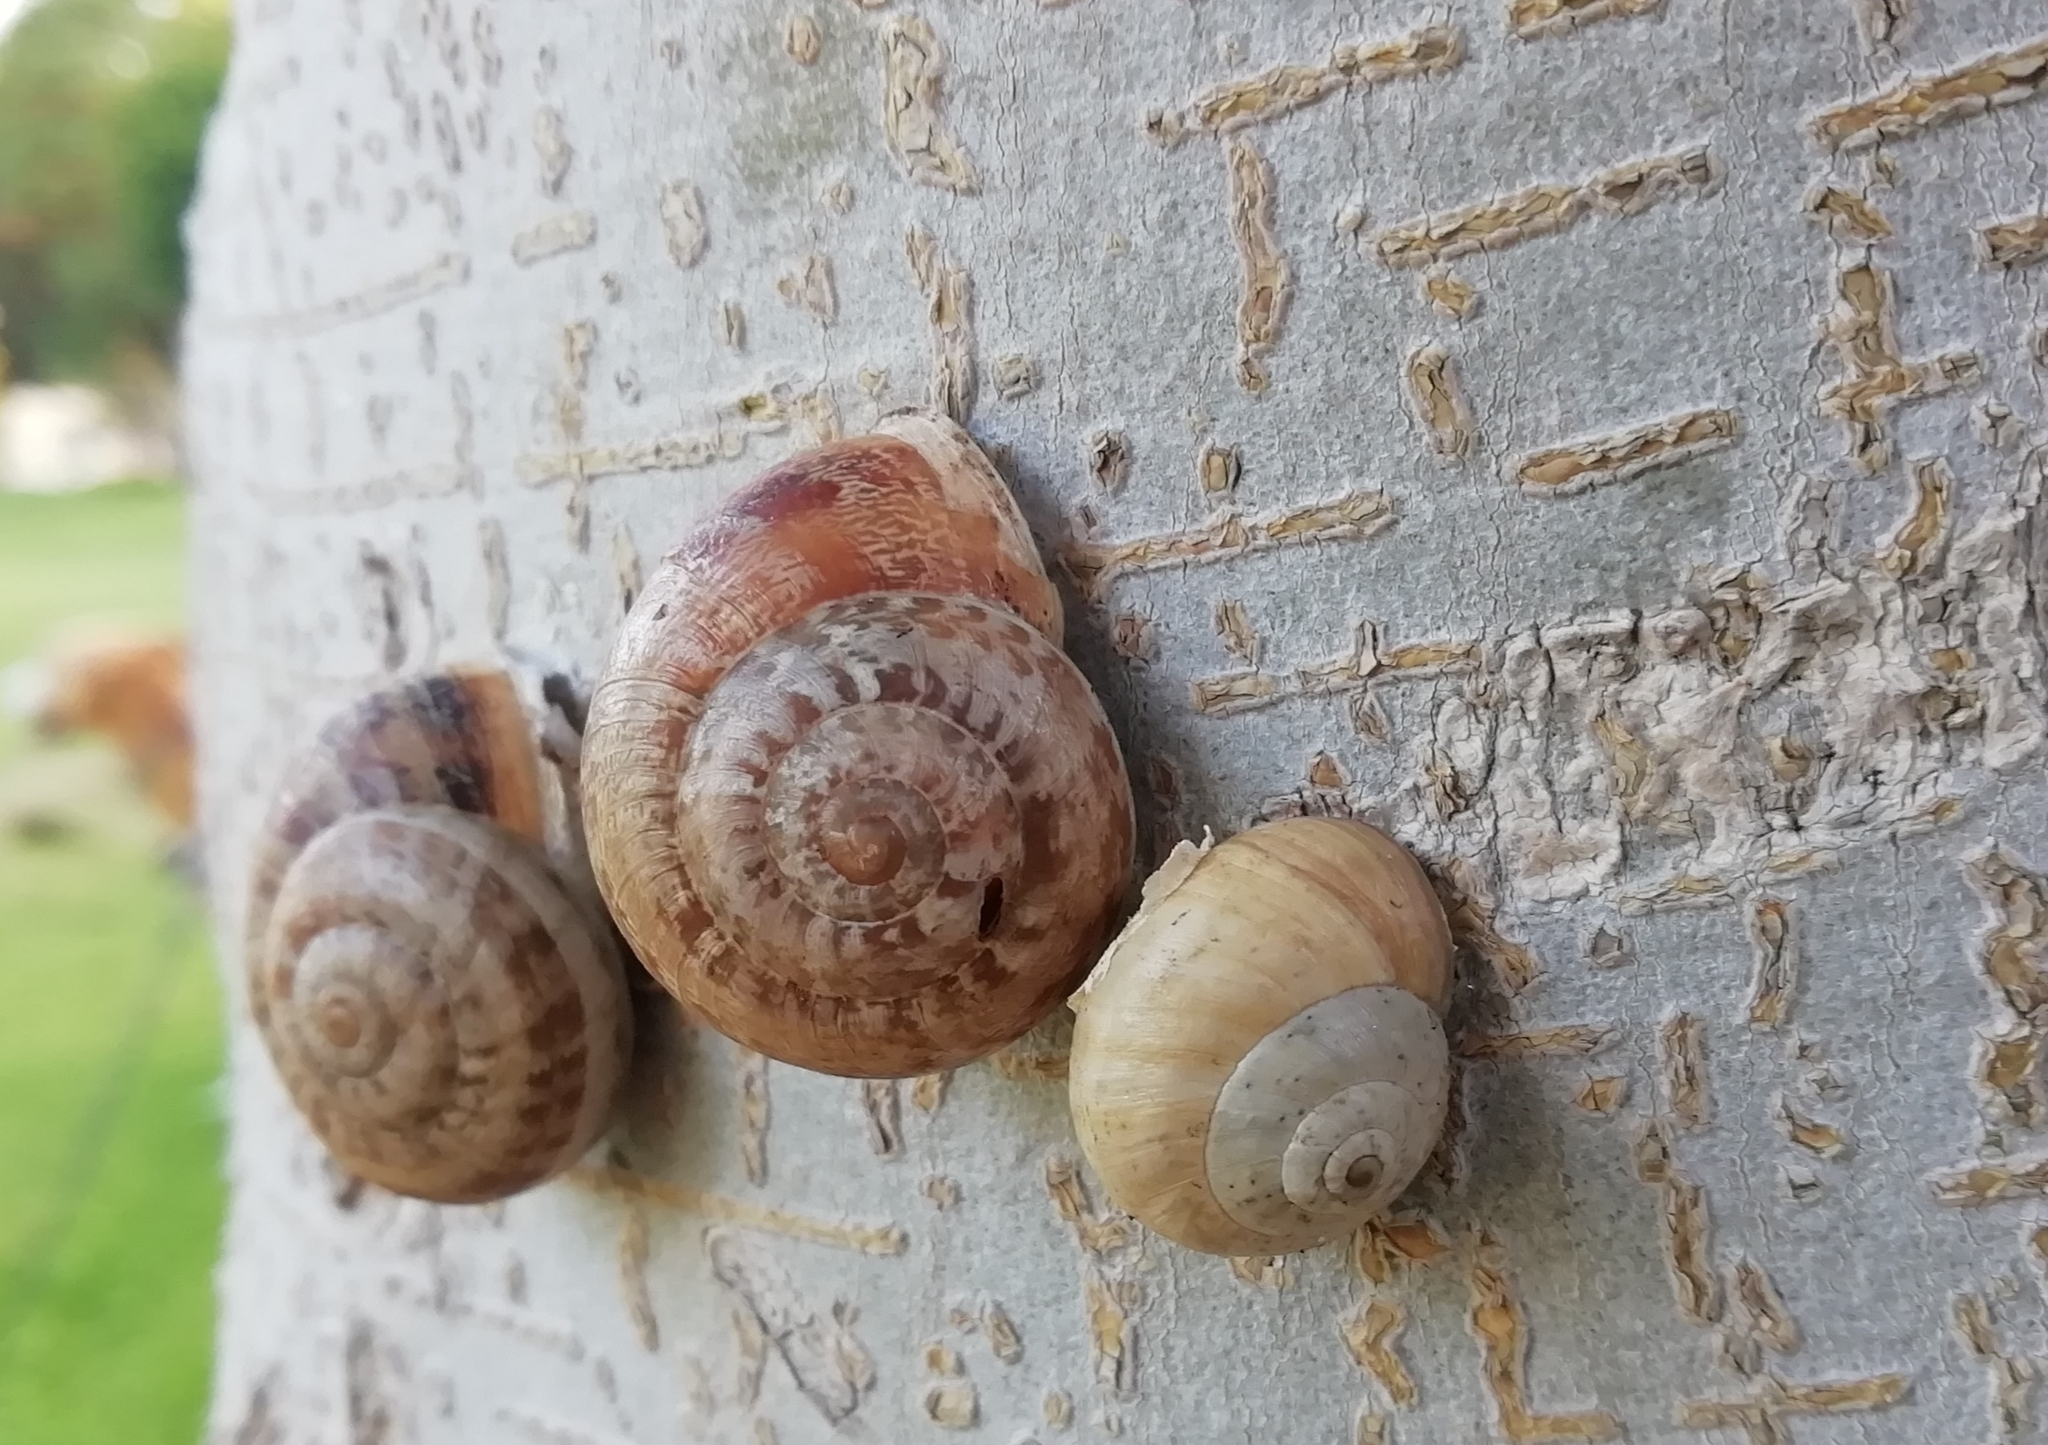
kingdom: Animalia
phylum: Mollusca
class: Gastropoda
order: Stylommatophora
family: Helicidae
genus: Theba
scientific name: Theba pisana
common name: White snail
